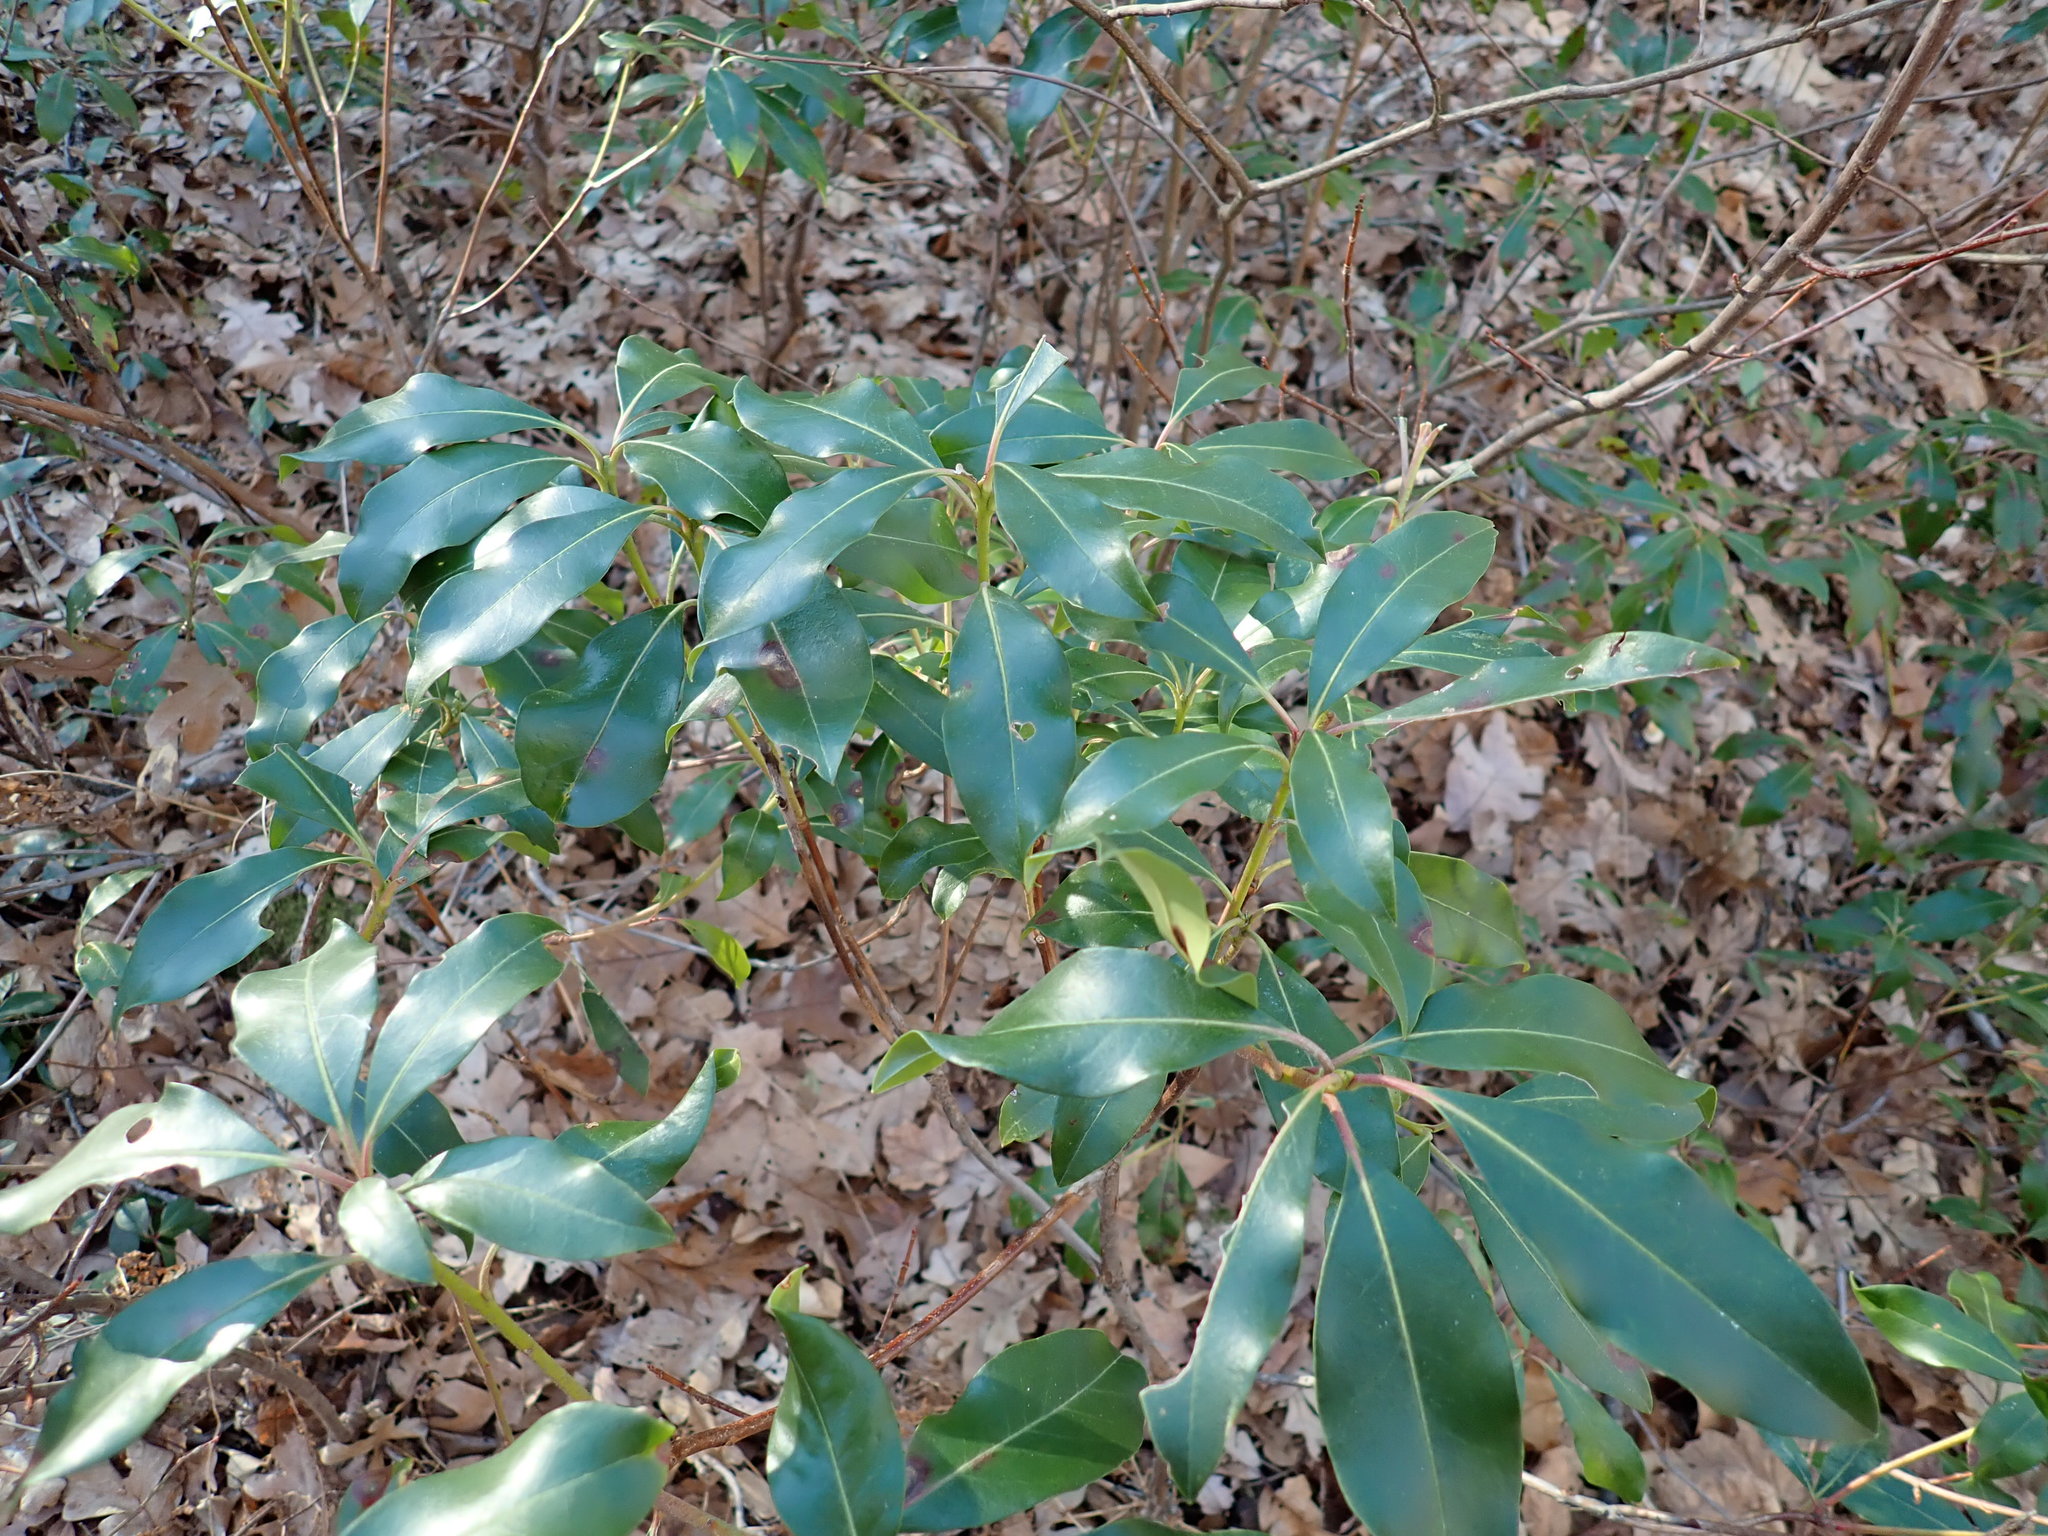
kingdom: Plantae
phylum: Tracheophyta
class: Magnoliopsida
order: Ericales
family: Ericaceae
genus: Kalmia
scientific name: Kalmia latifolia
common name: Mountain-laurel
